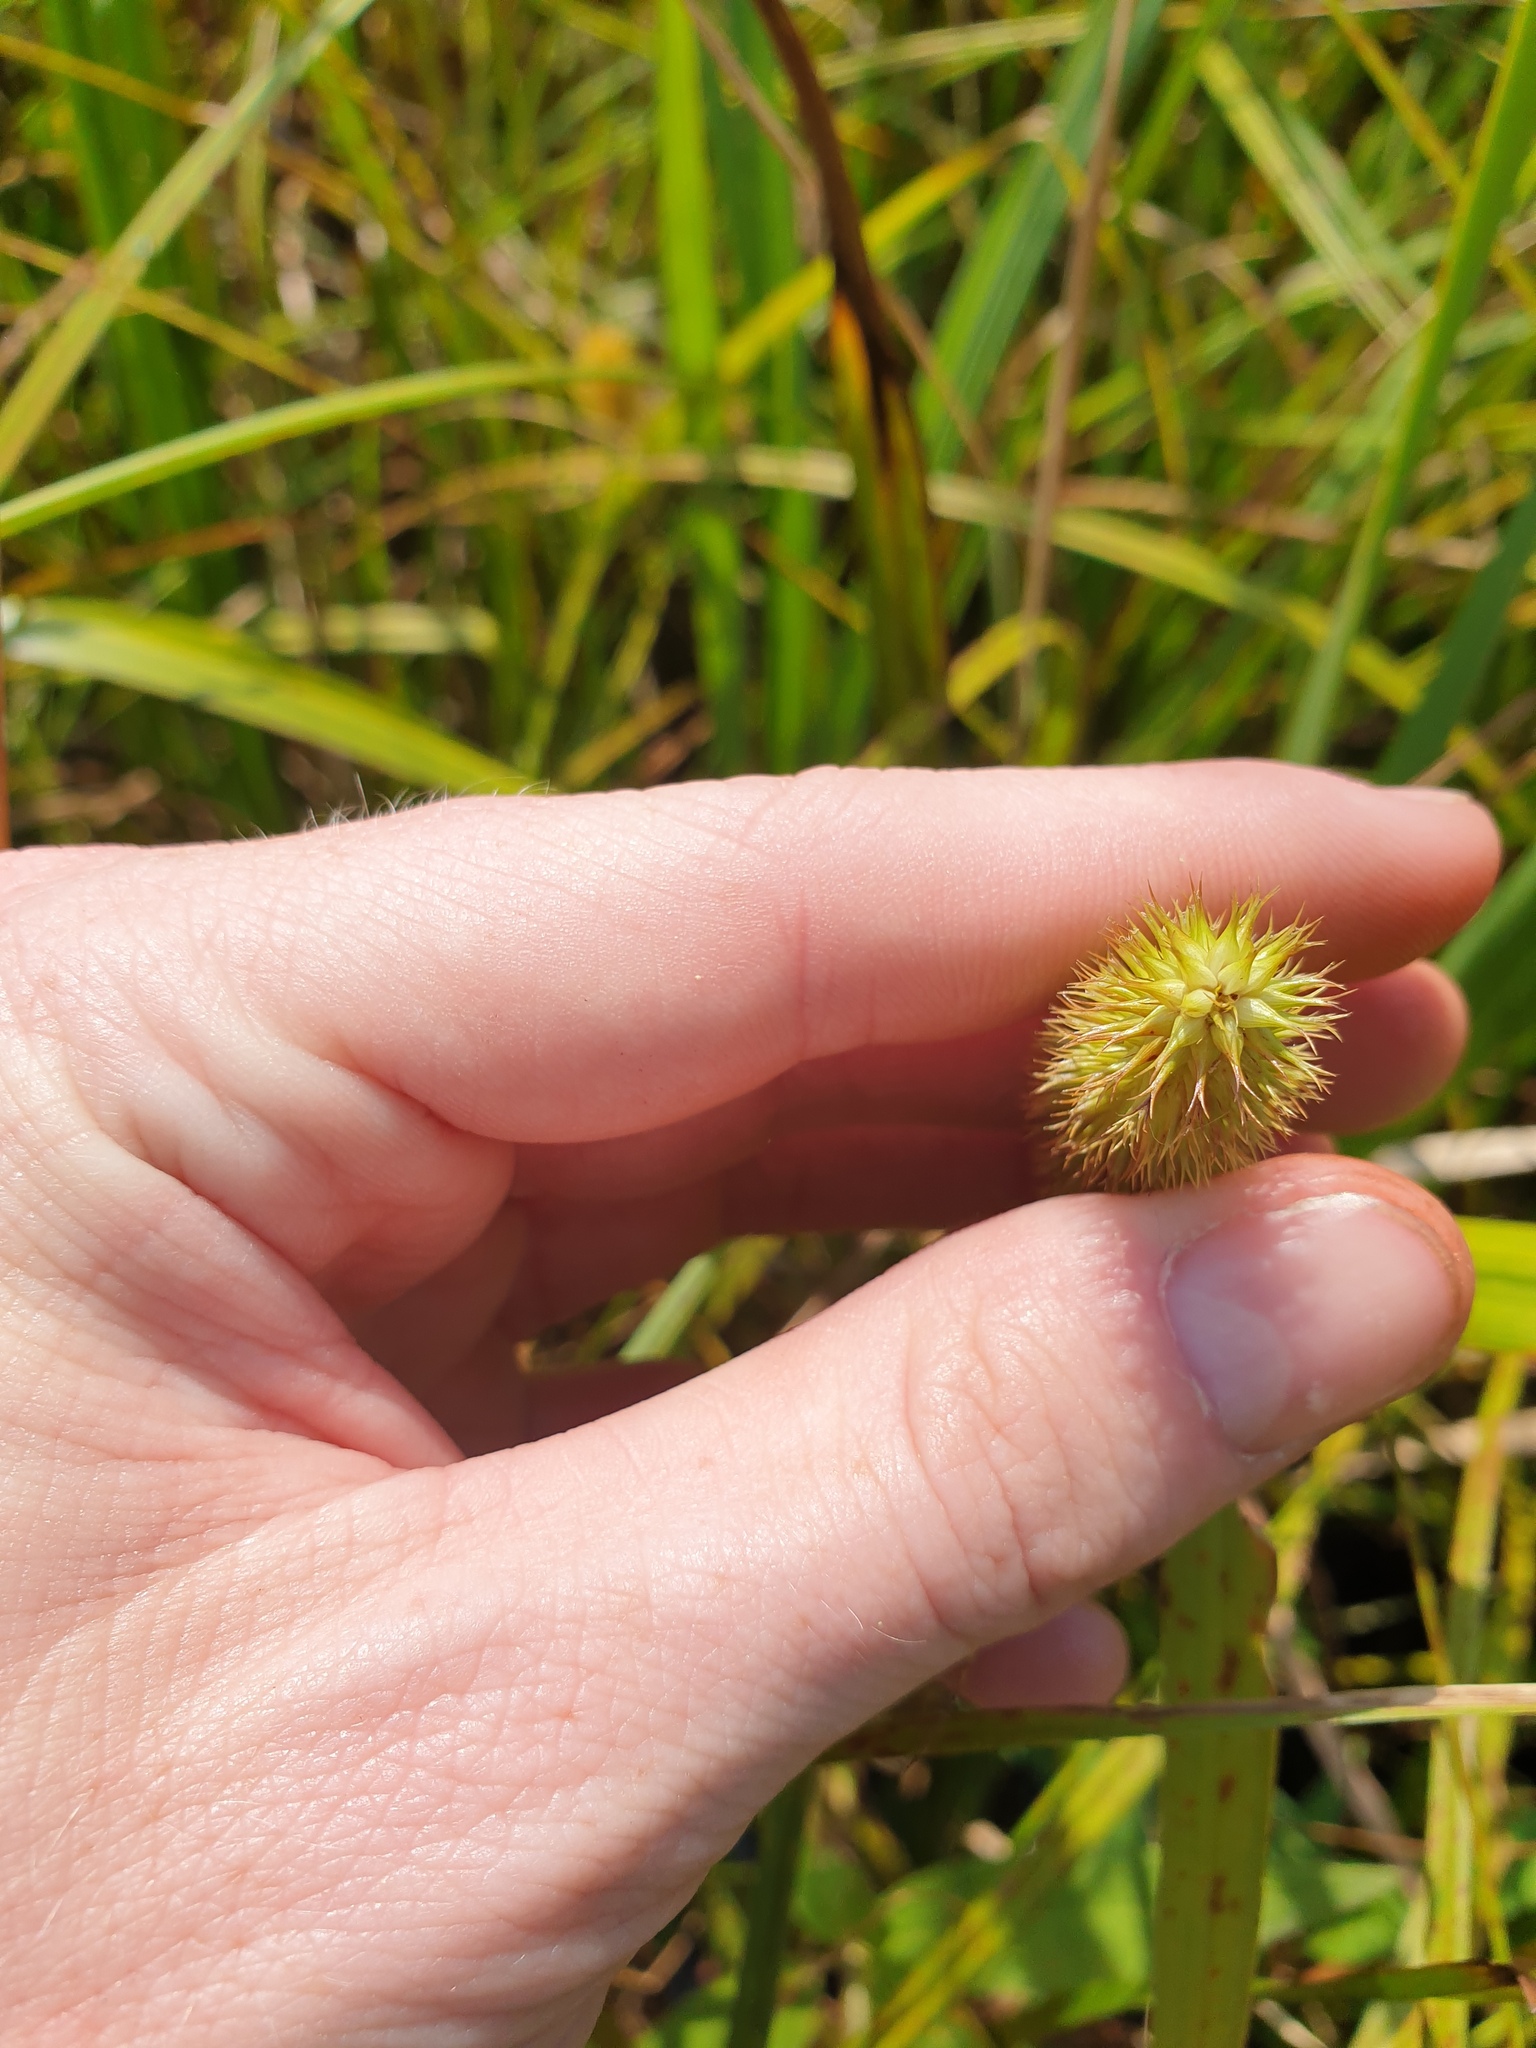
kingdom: Plantae
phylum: Tracheophyta
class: Liliopsida
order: Poales
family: Cyperaceae
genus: Carex
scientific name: Carex comosa
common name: Bristly sedge
